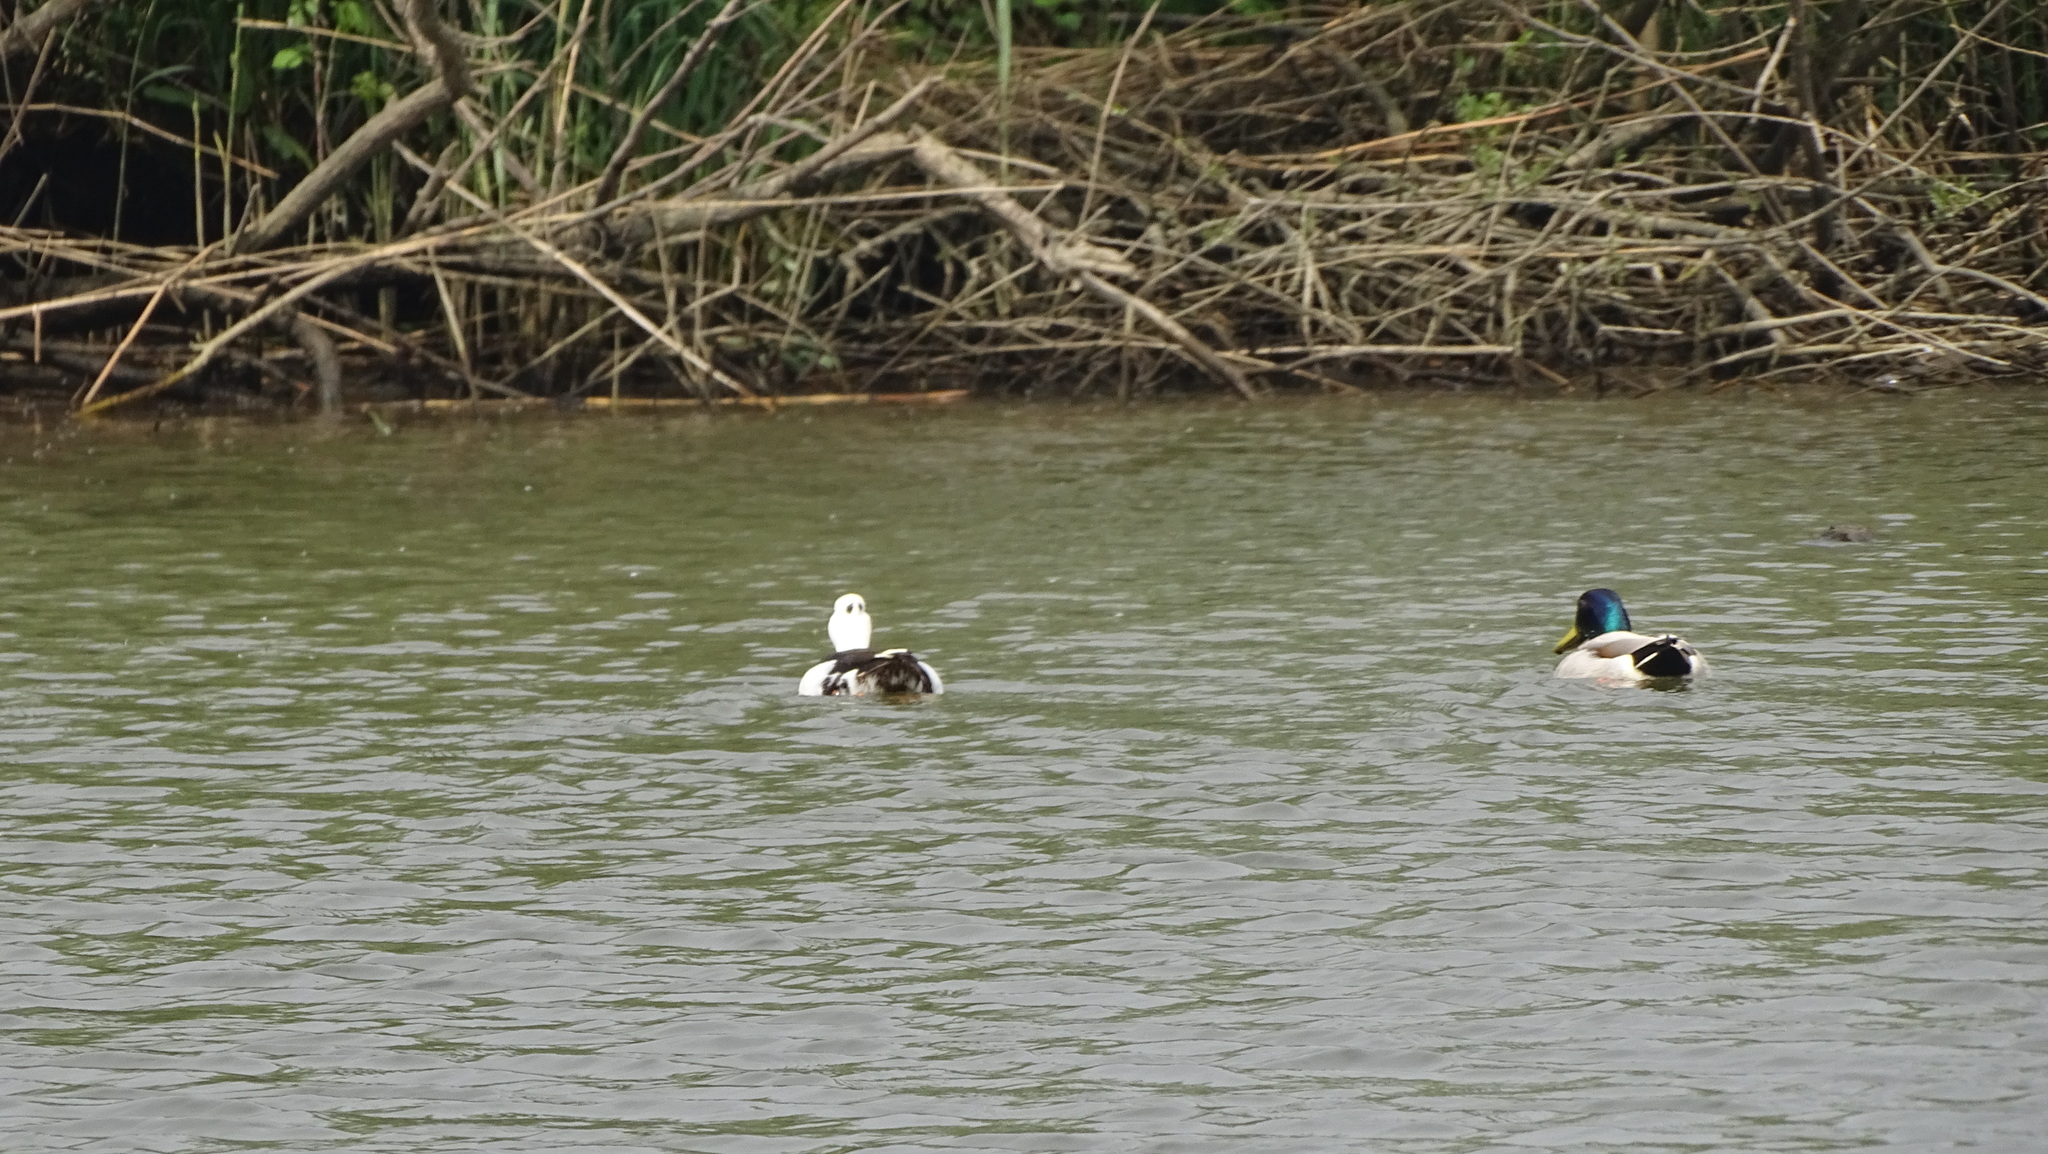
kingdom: Animalia
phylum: Chordata
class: Aves
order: Anseriformes
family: Anatidae
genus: Anas
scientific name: Anas platyrhynchos
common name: Mallard
